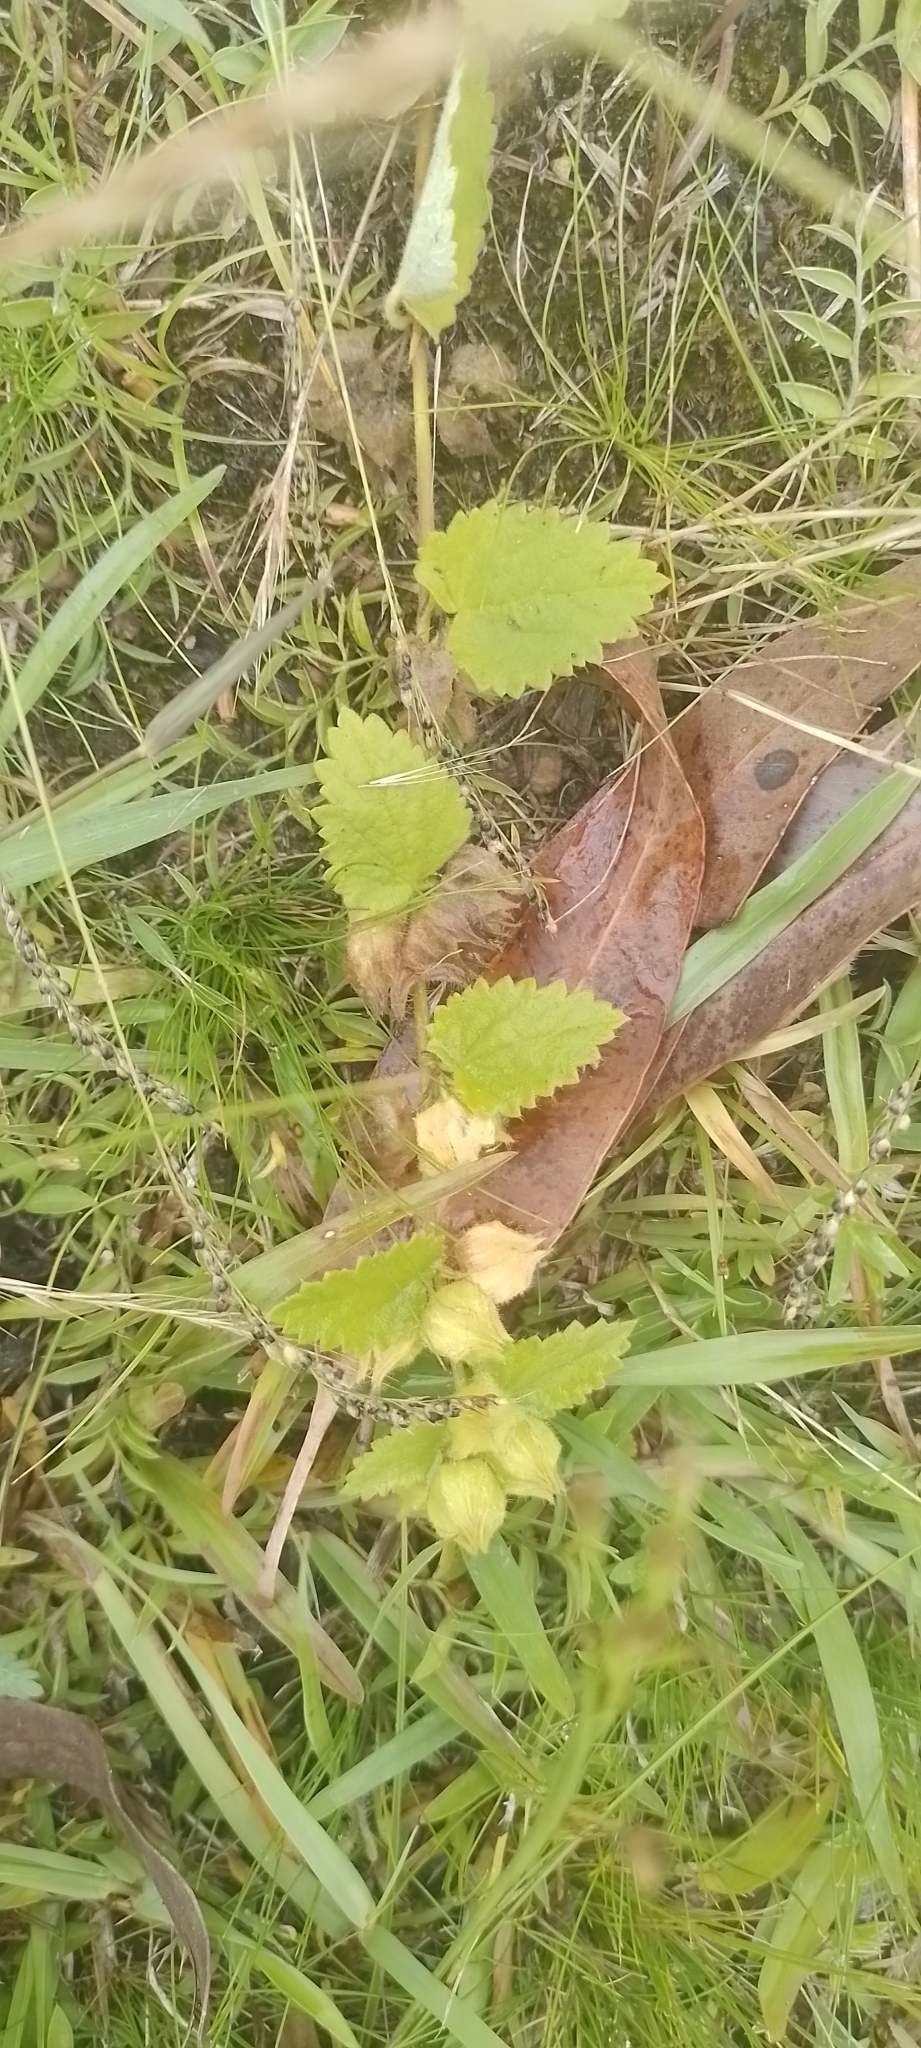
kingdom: Plantae
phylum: Tracheophyta
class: Magnoliopsida
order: Malvales
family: Malvaceae
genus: Krapovickasia
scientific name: Krapovickasia flavescens
